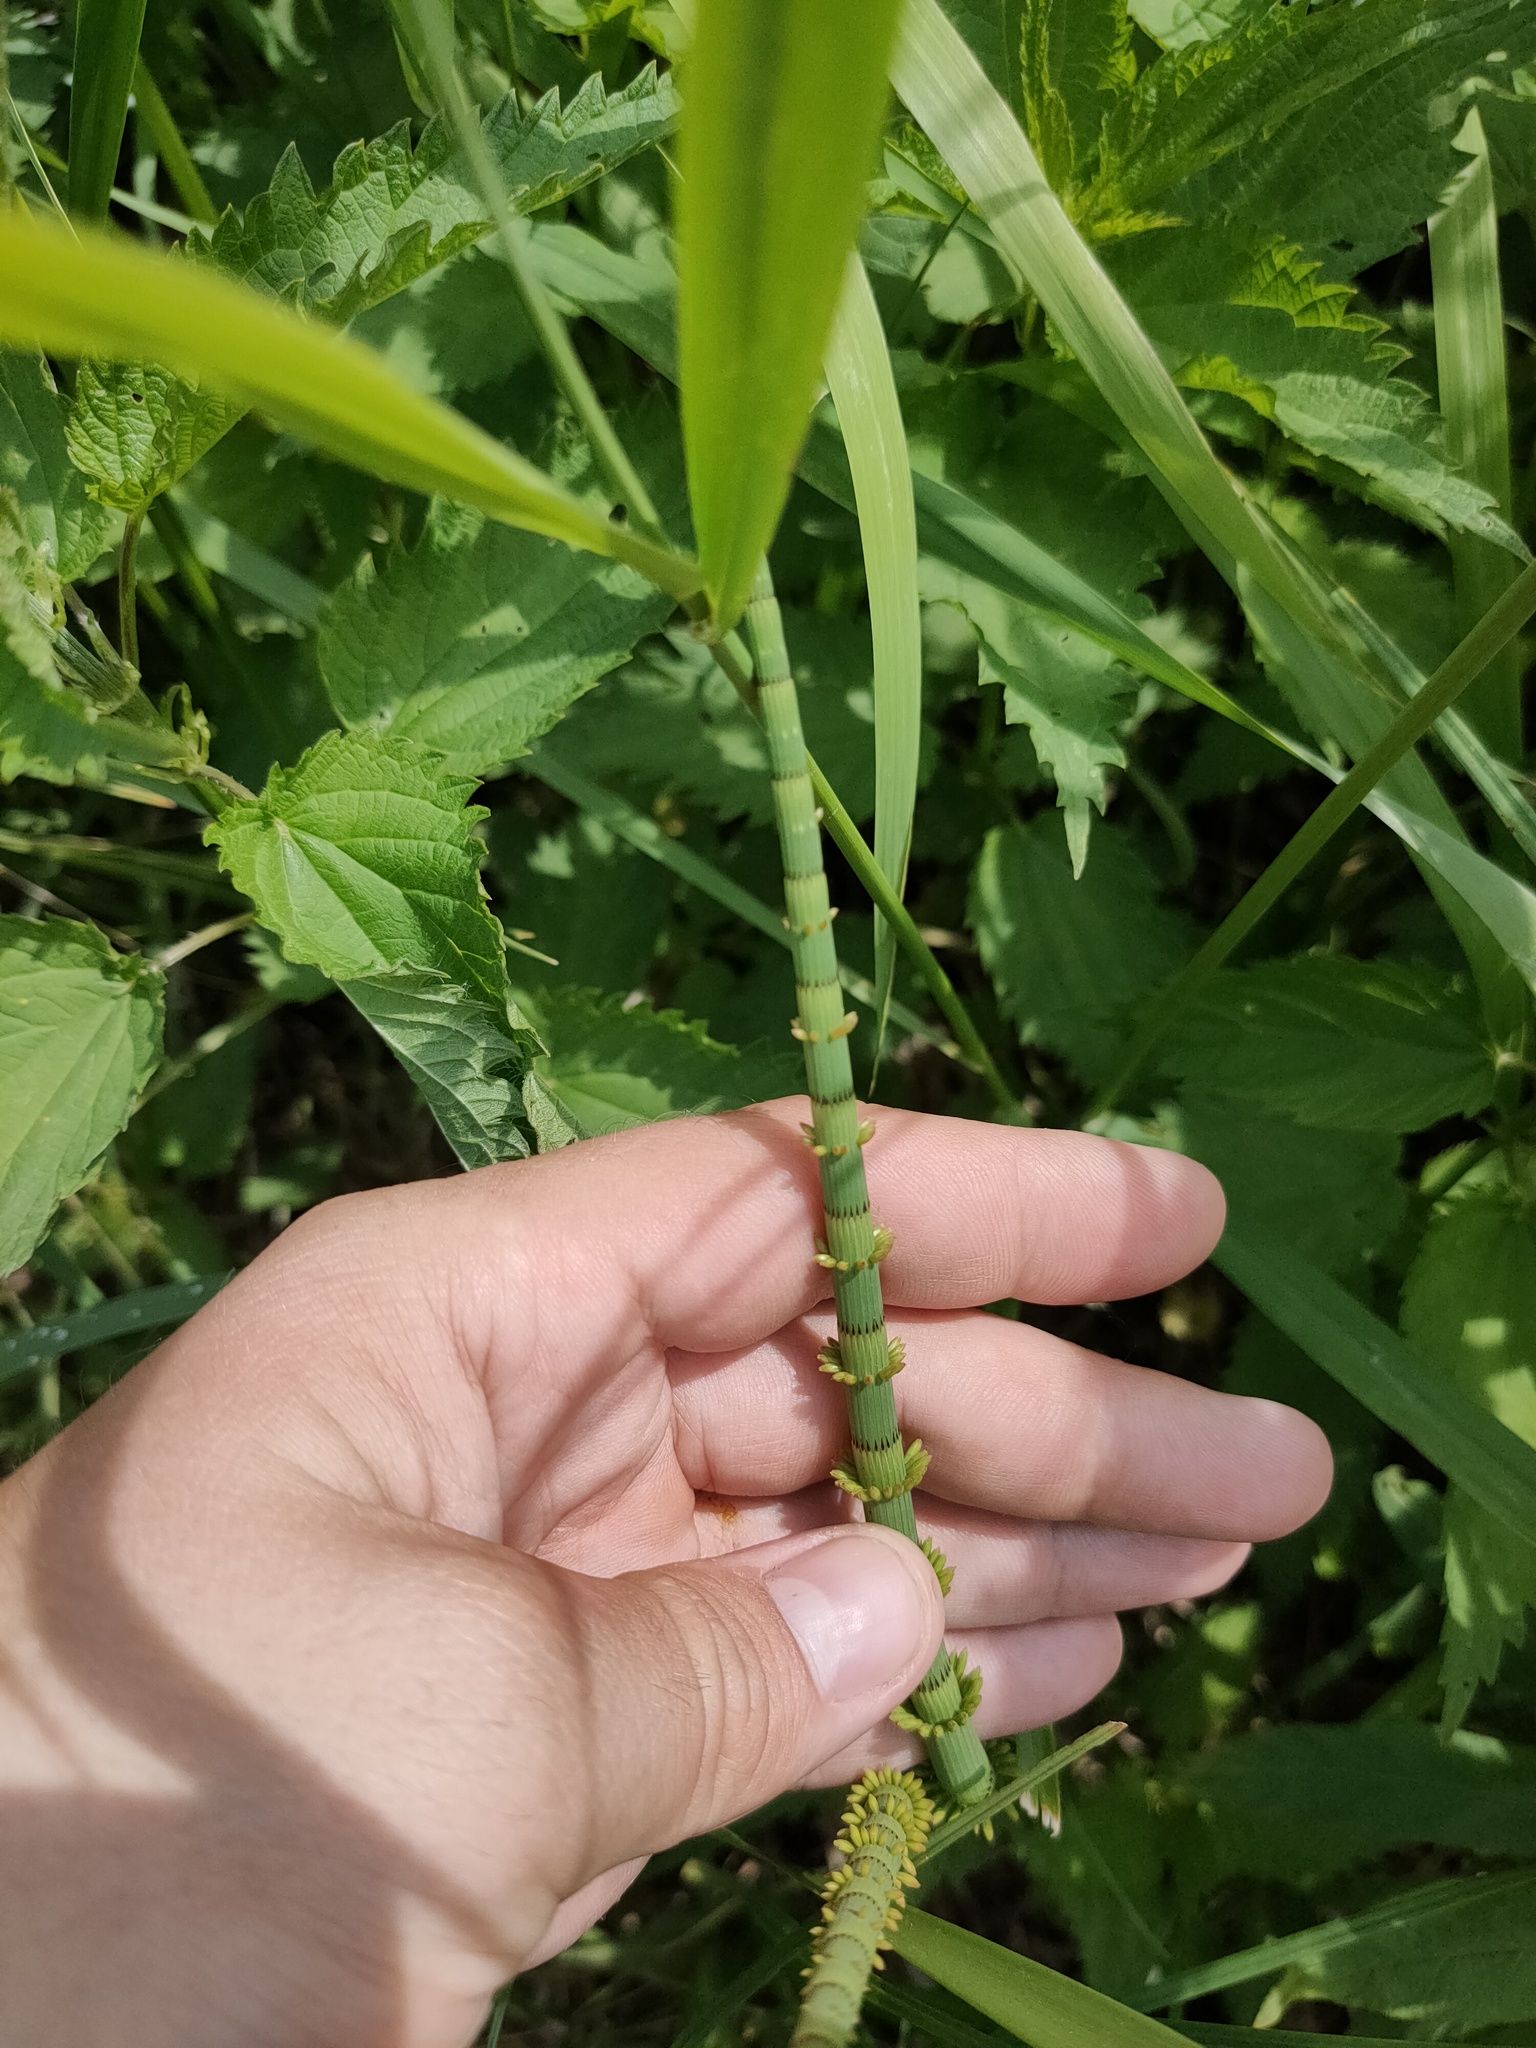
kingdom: Plantae
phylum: Tracheophyta
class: Polypodiopsida
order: Equisetales
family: Equisetaceae
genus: Equisetum
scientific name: Equisetum fluviatile
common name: Water horsetail
